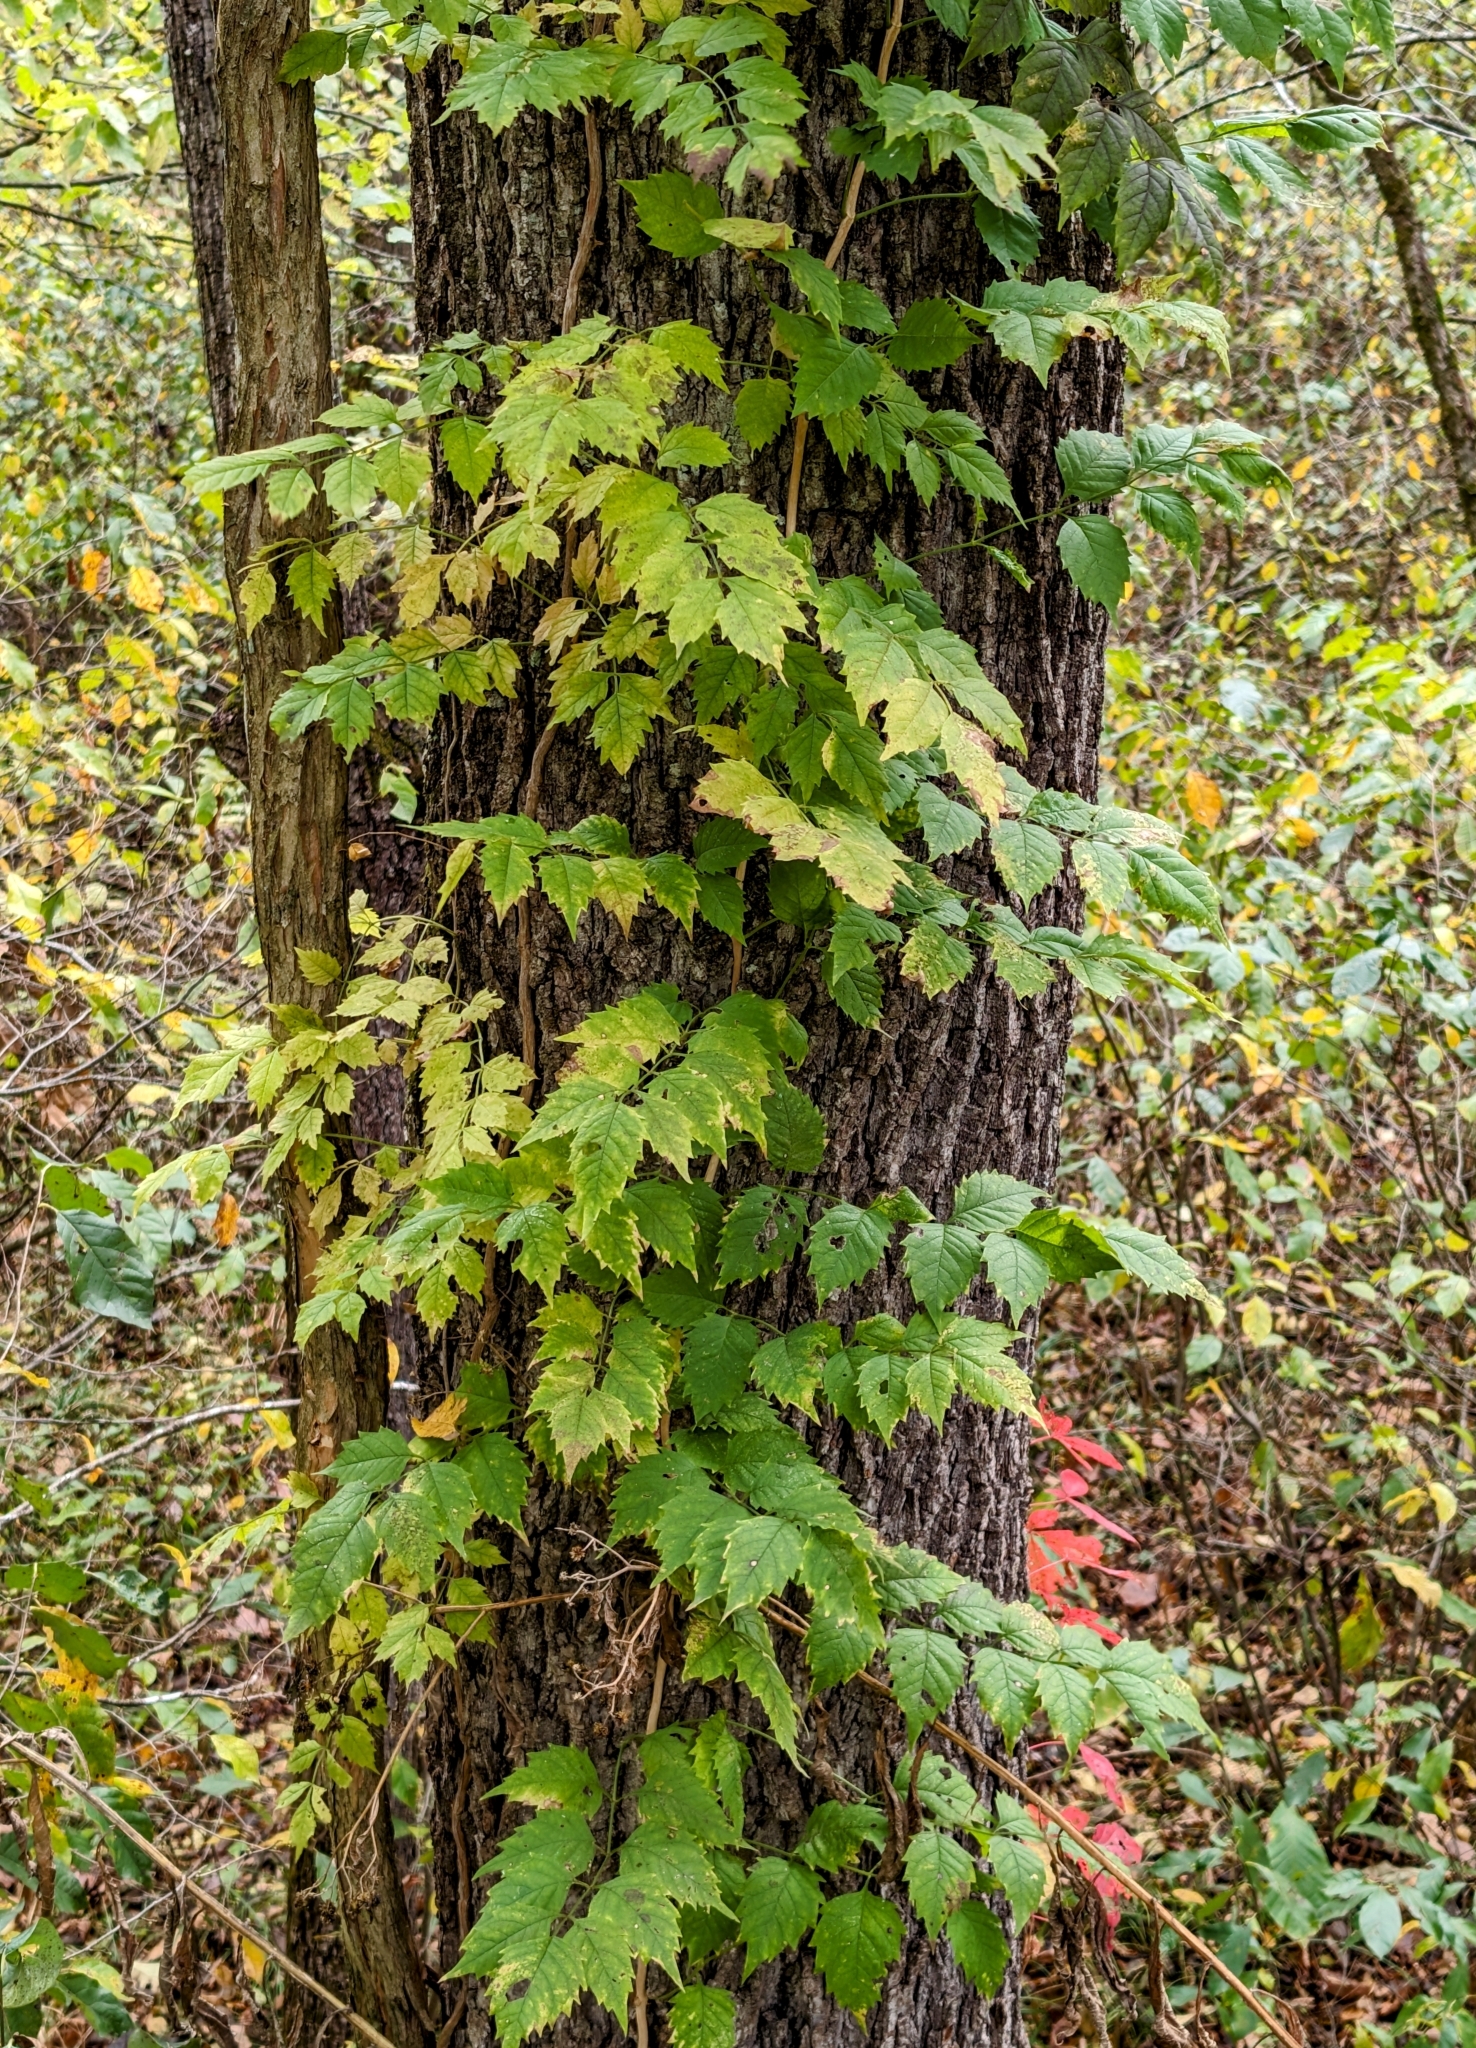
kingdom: Plantae
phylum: Tracheophyta
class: Magnoliopsida
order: Lamiales
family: Bignoniaceae
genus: Campsis
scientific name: Campsis radicans
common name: Trumpet-creeper
